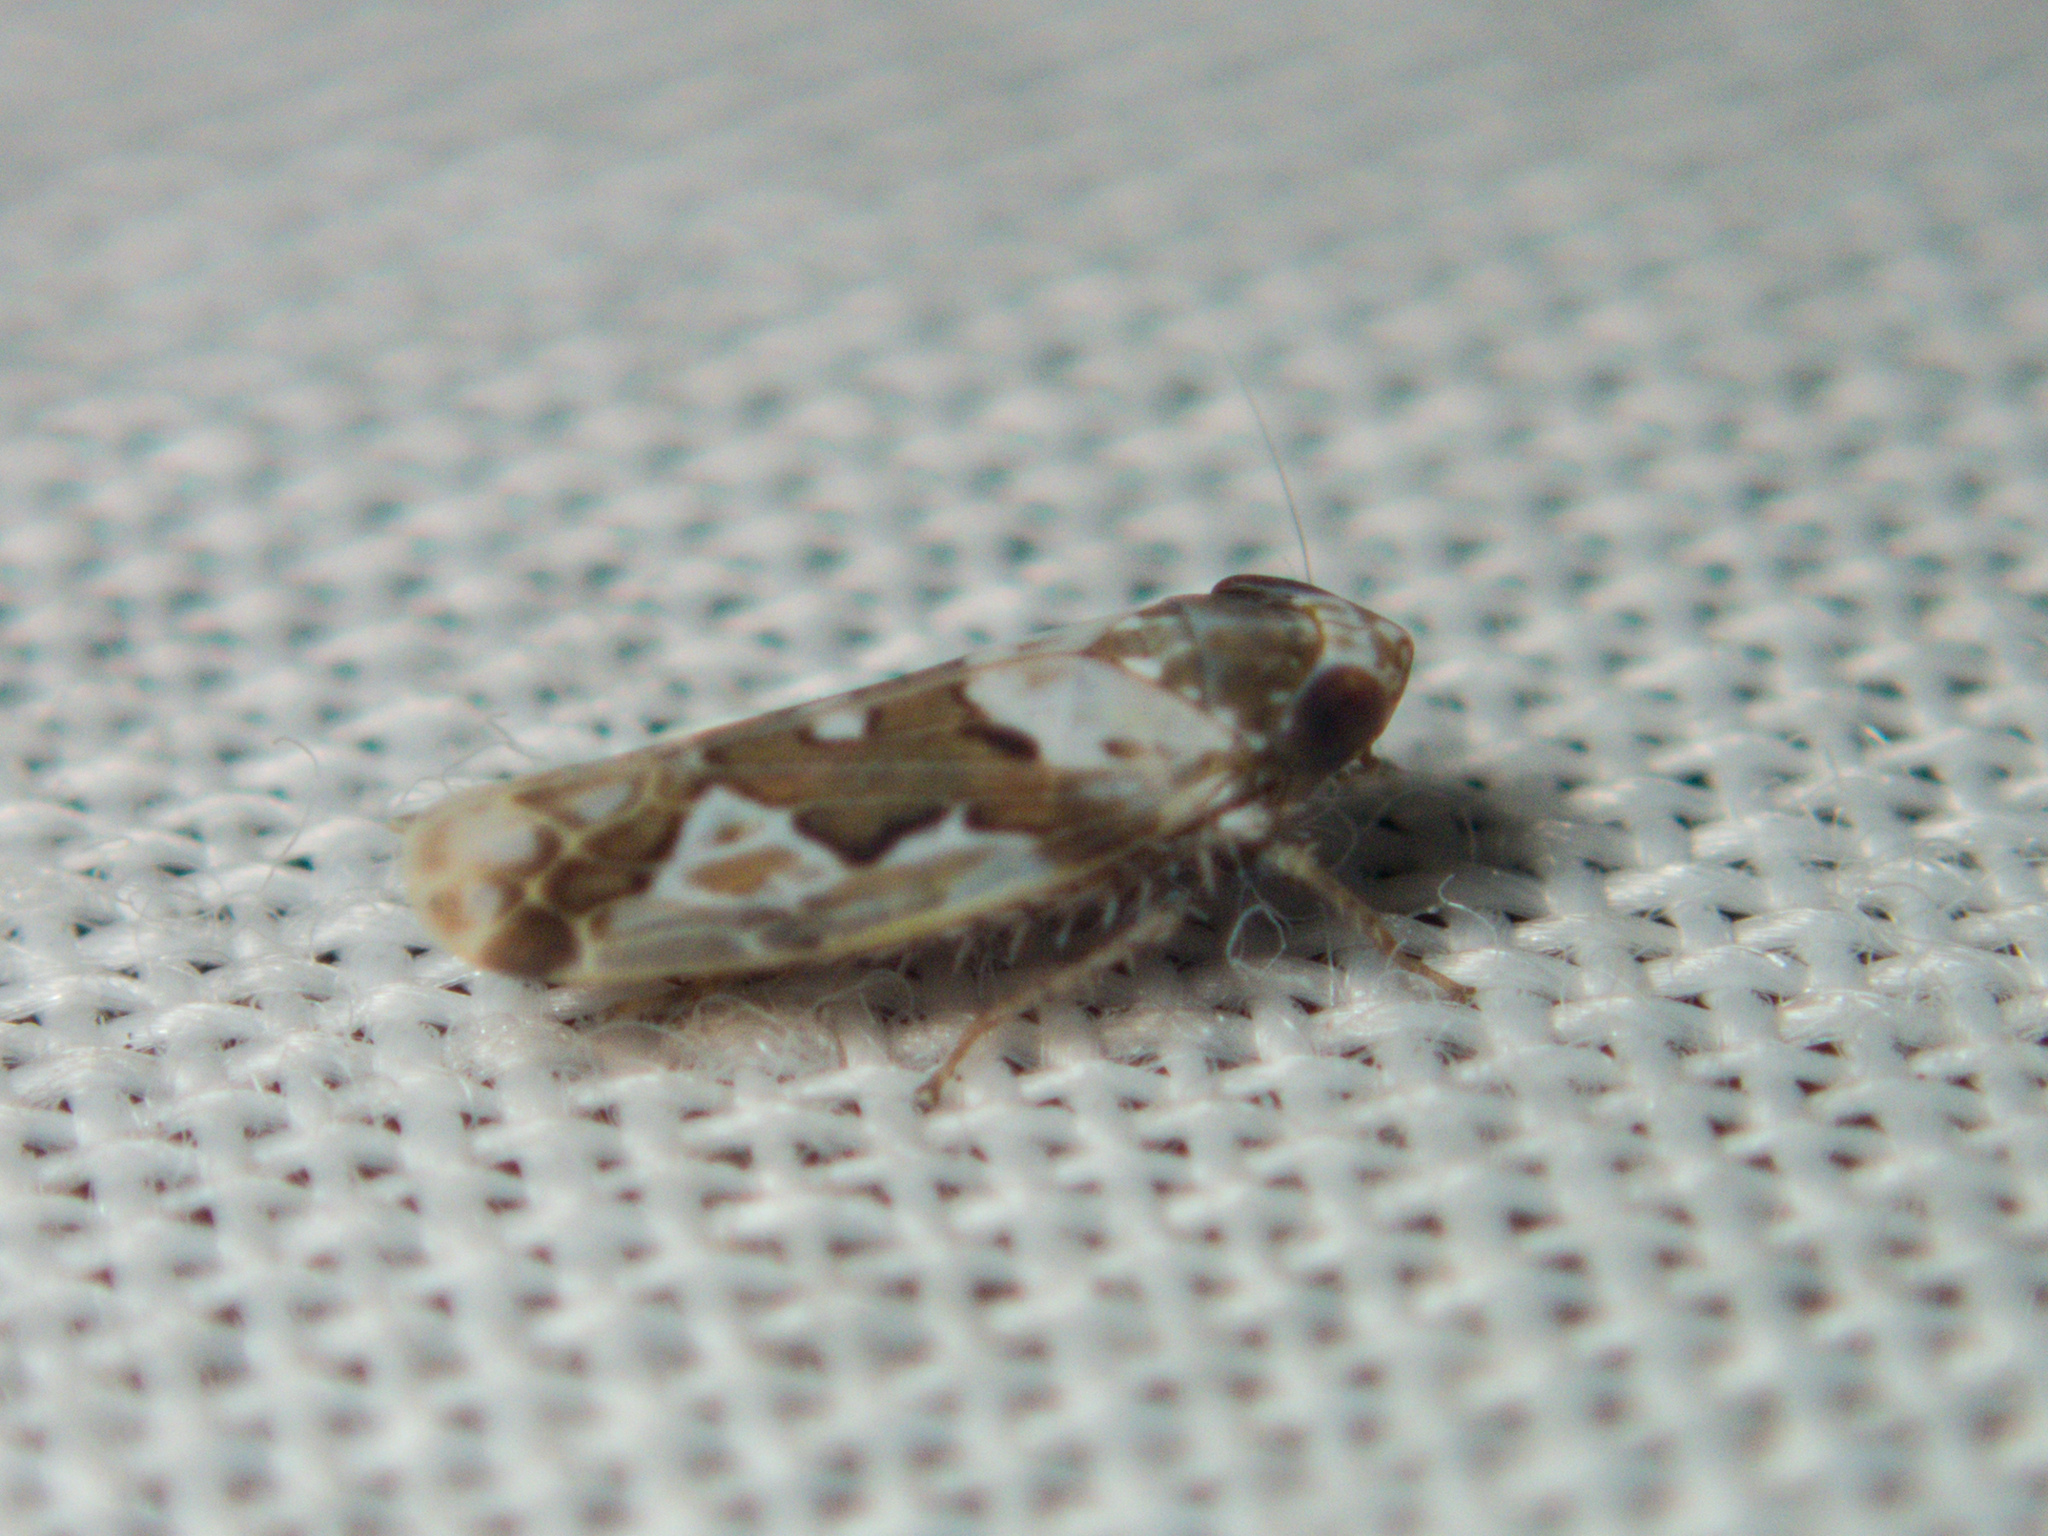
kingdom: Animalia
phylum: Arthropoda
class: Insecta
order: Hemiptera
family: Cicadellidae
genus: Maiestas
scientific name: Maiestas dorsalis
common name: Zig-zag leafhopper
